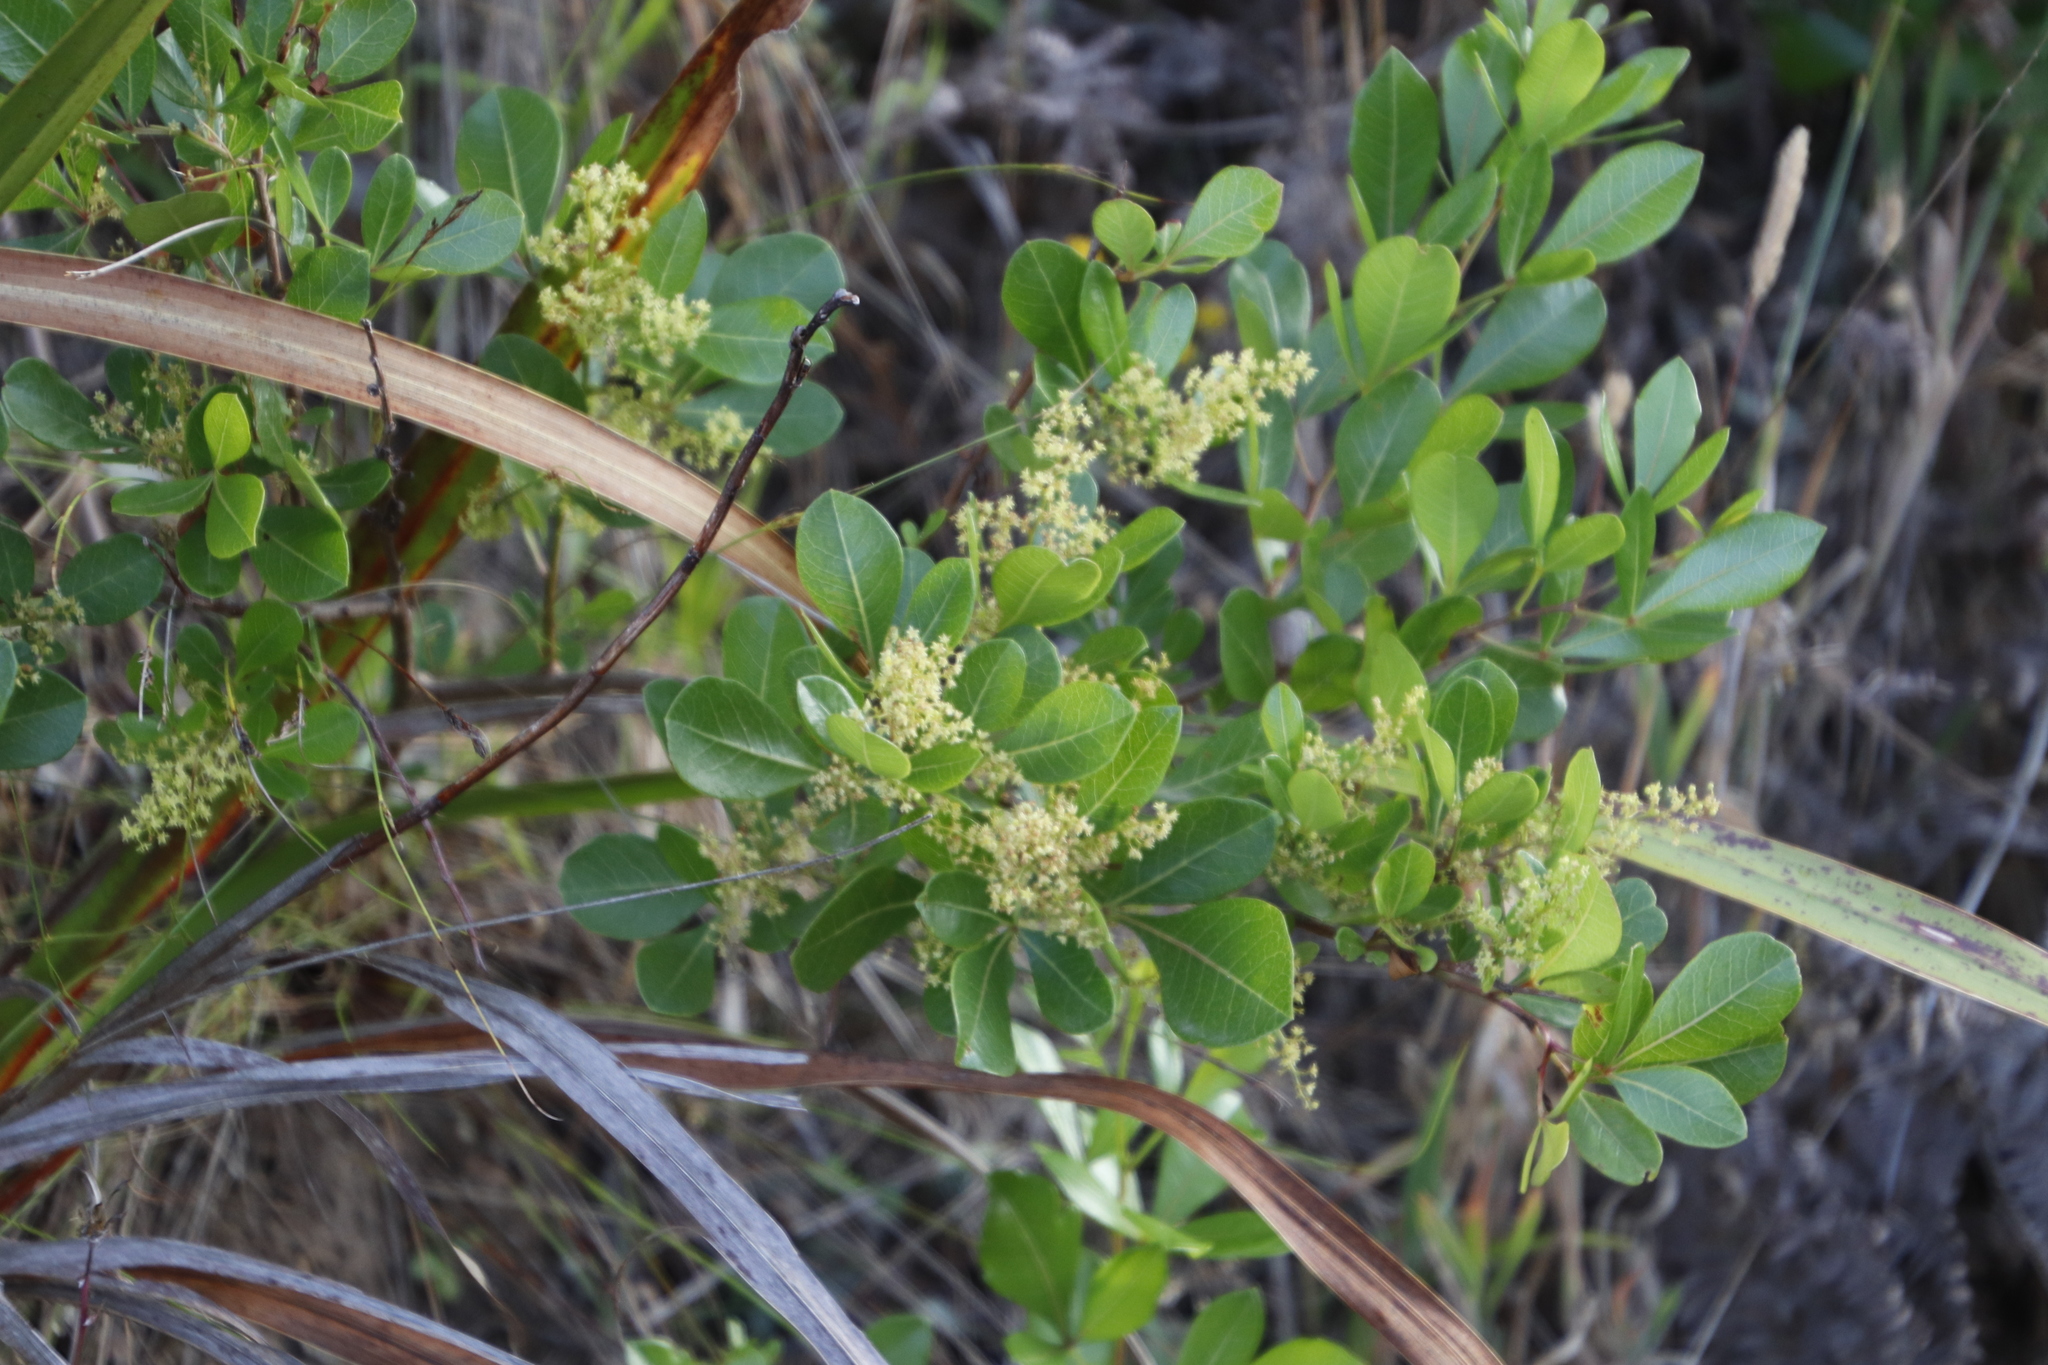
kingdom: Plantae
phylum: Tracheophyta
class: Magnoliopsida
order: Sapindales
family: Anacardiaceae
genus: Searsia
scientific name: Searsia laevigata
